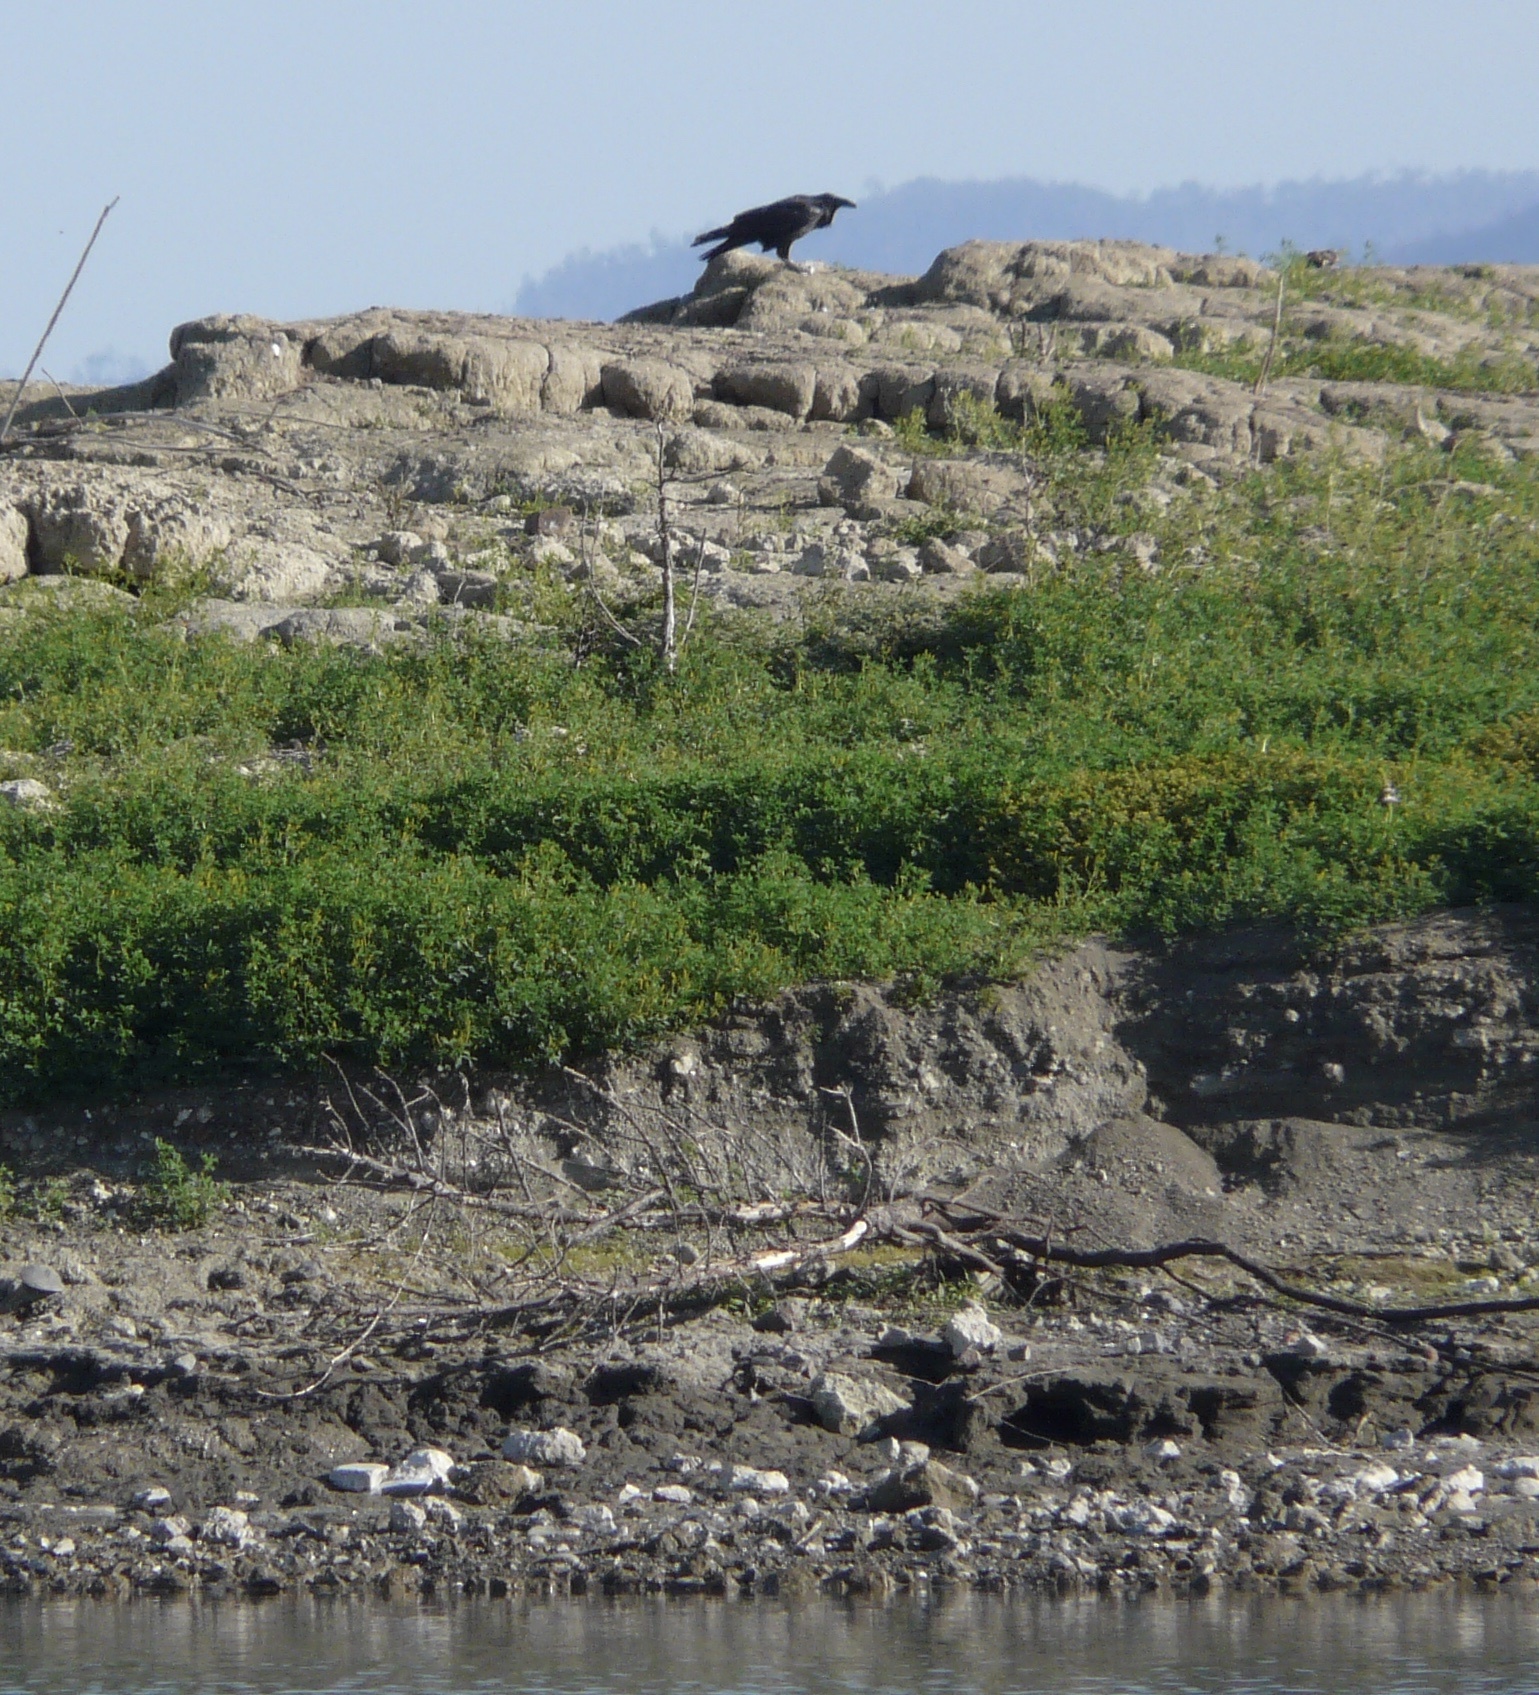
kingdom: Animalia
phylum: Chordata
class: Aves
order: Passeriformes
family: Corvidae
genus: Corvus
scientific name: Corvus corax
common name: Common raven
